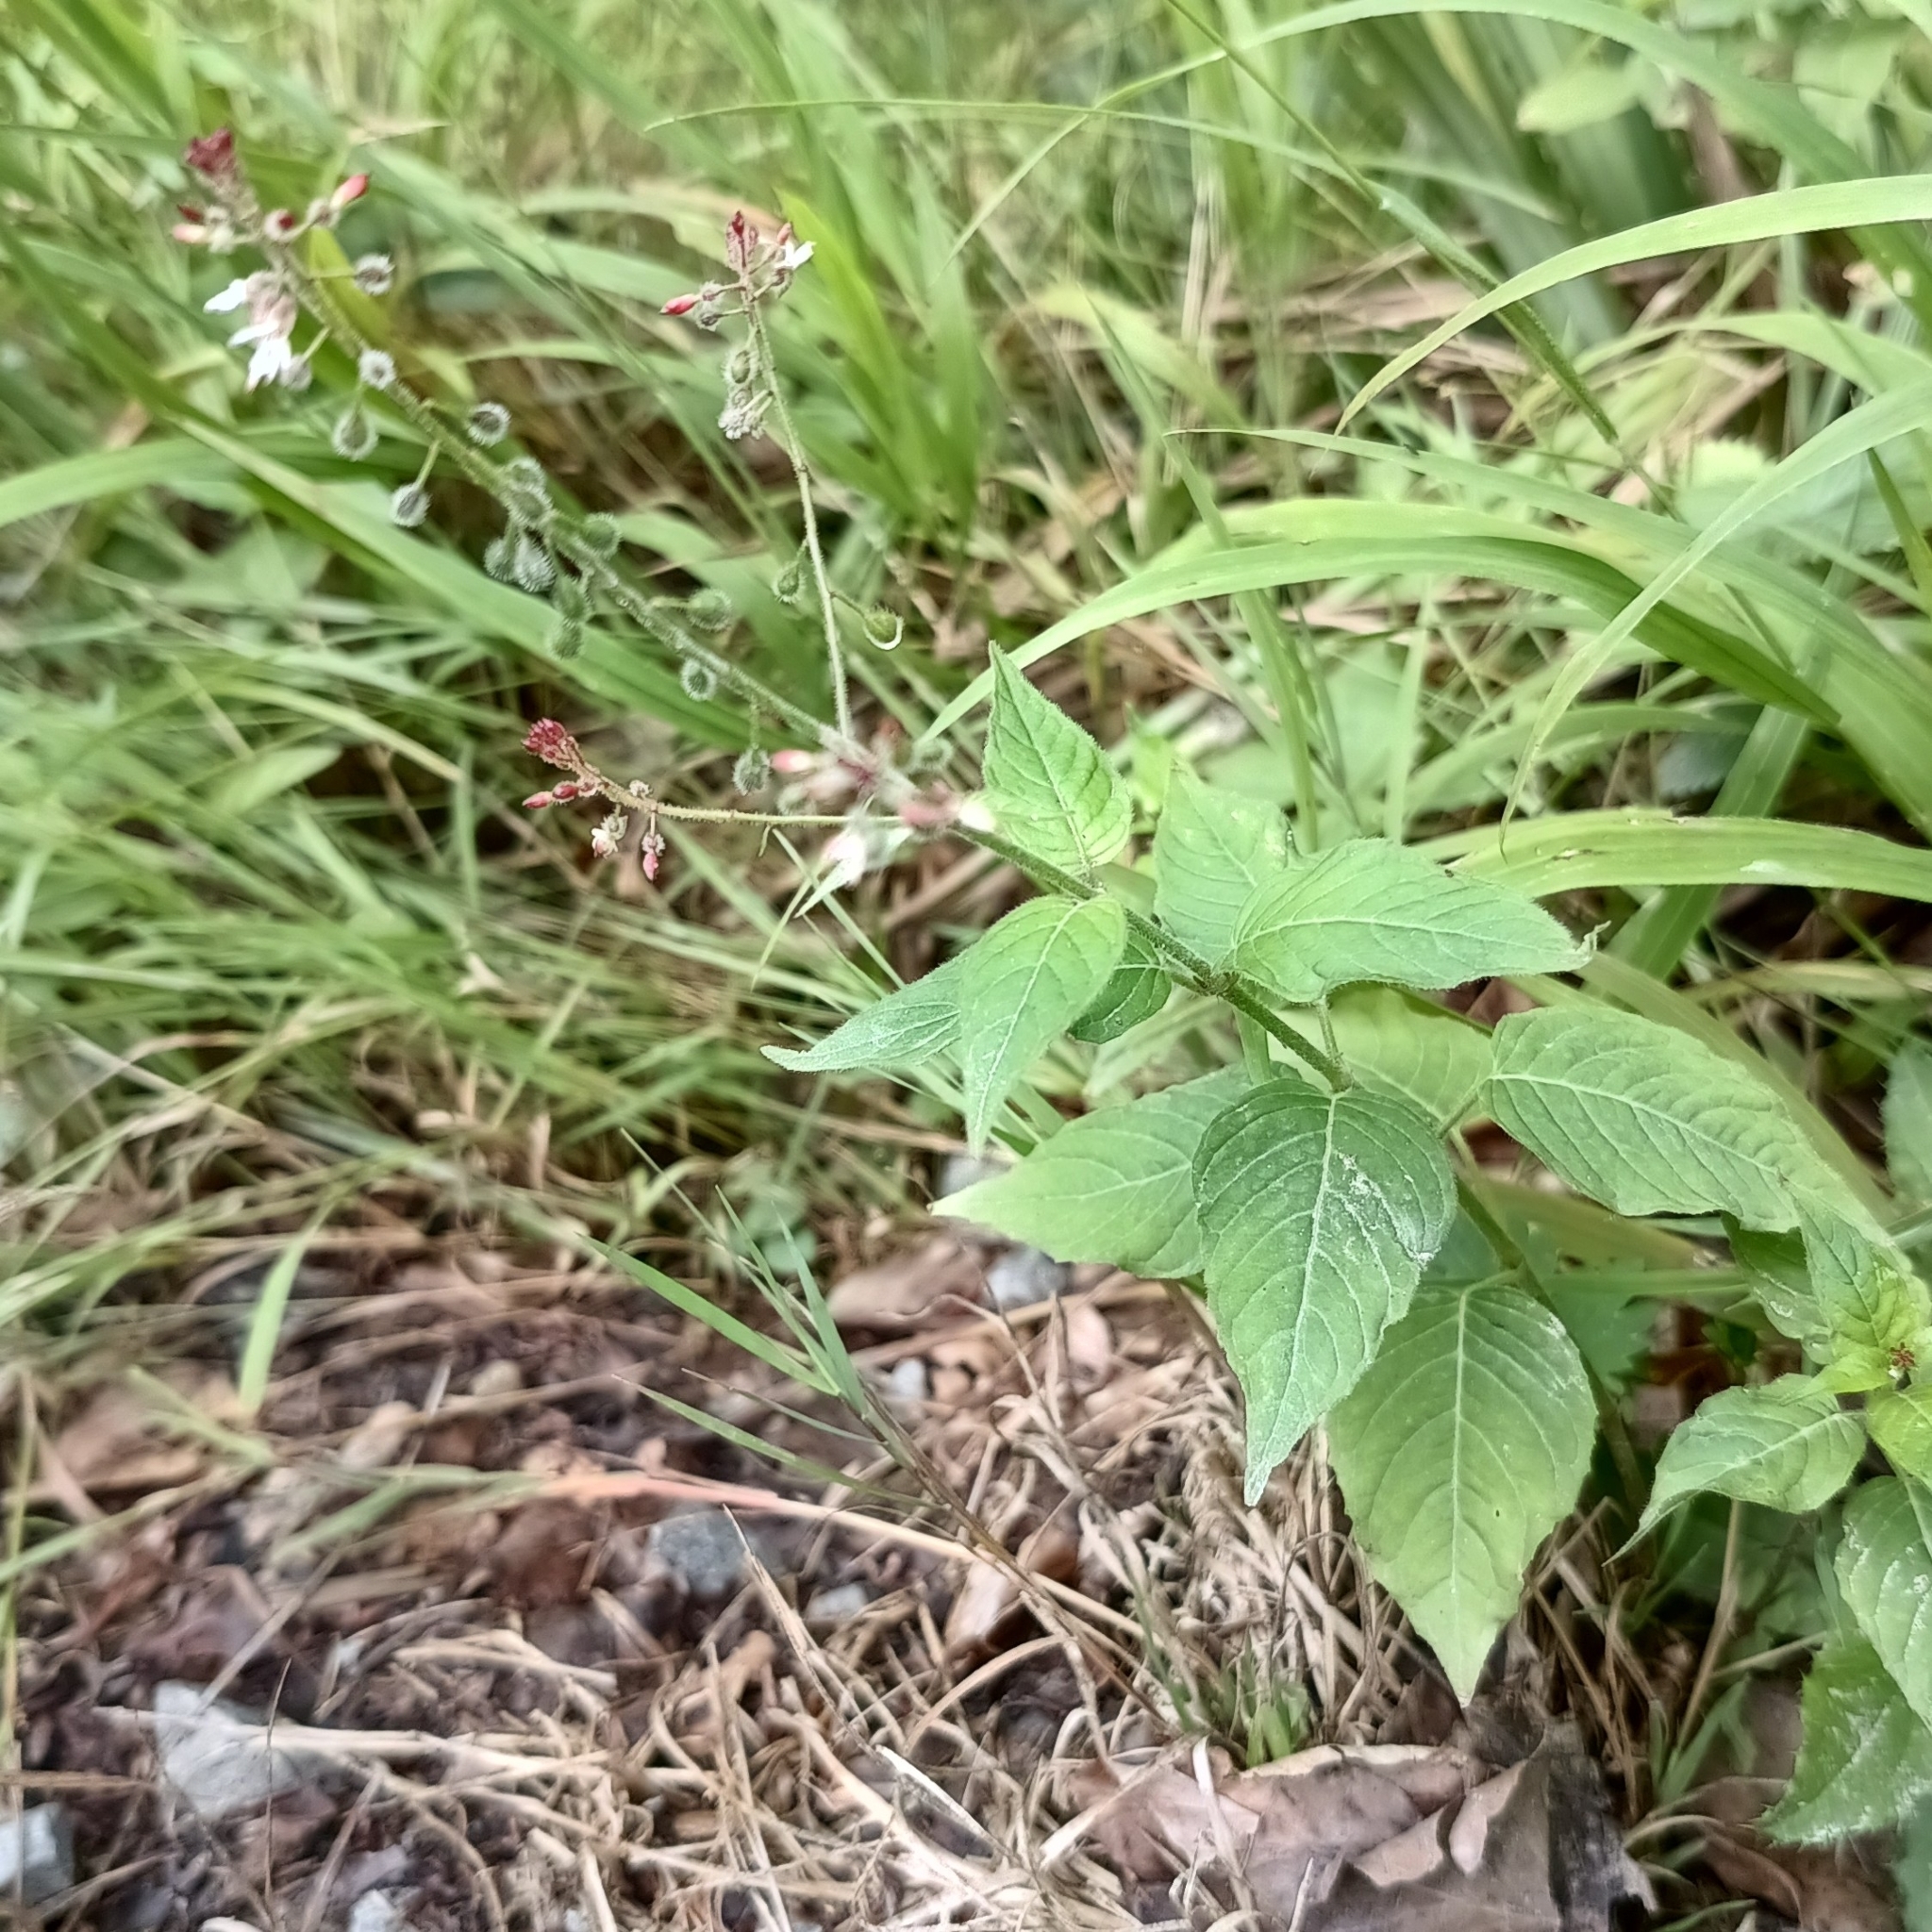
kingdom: Plantae
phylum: Tracheophyta
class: Magnoliopsida
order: Myrtales
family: Onagraceae
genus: Circaea
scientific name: Circaea lutetiana
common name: Enchanter's-nightshade
